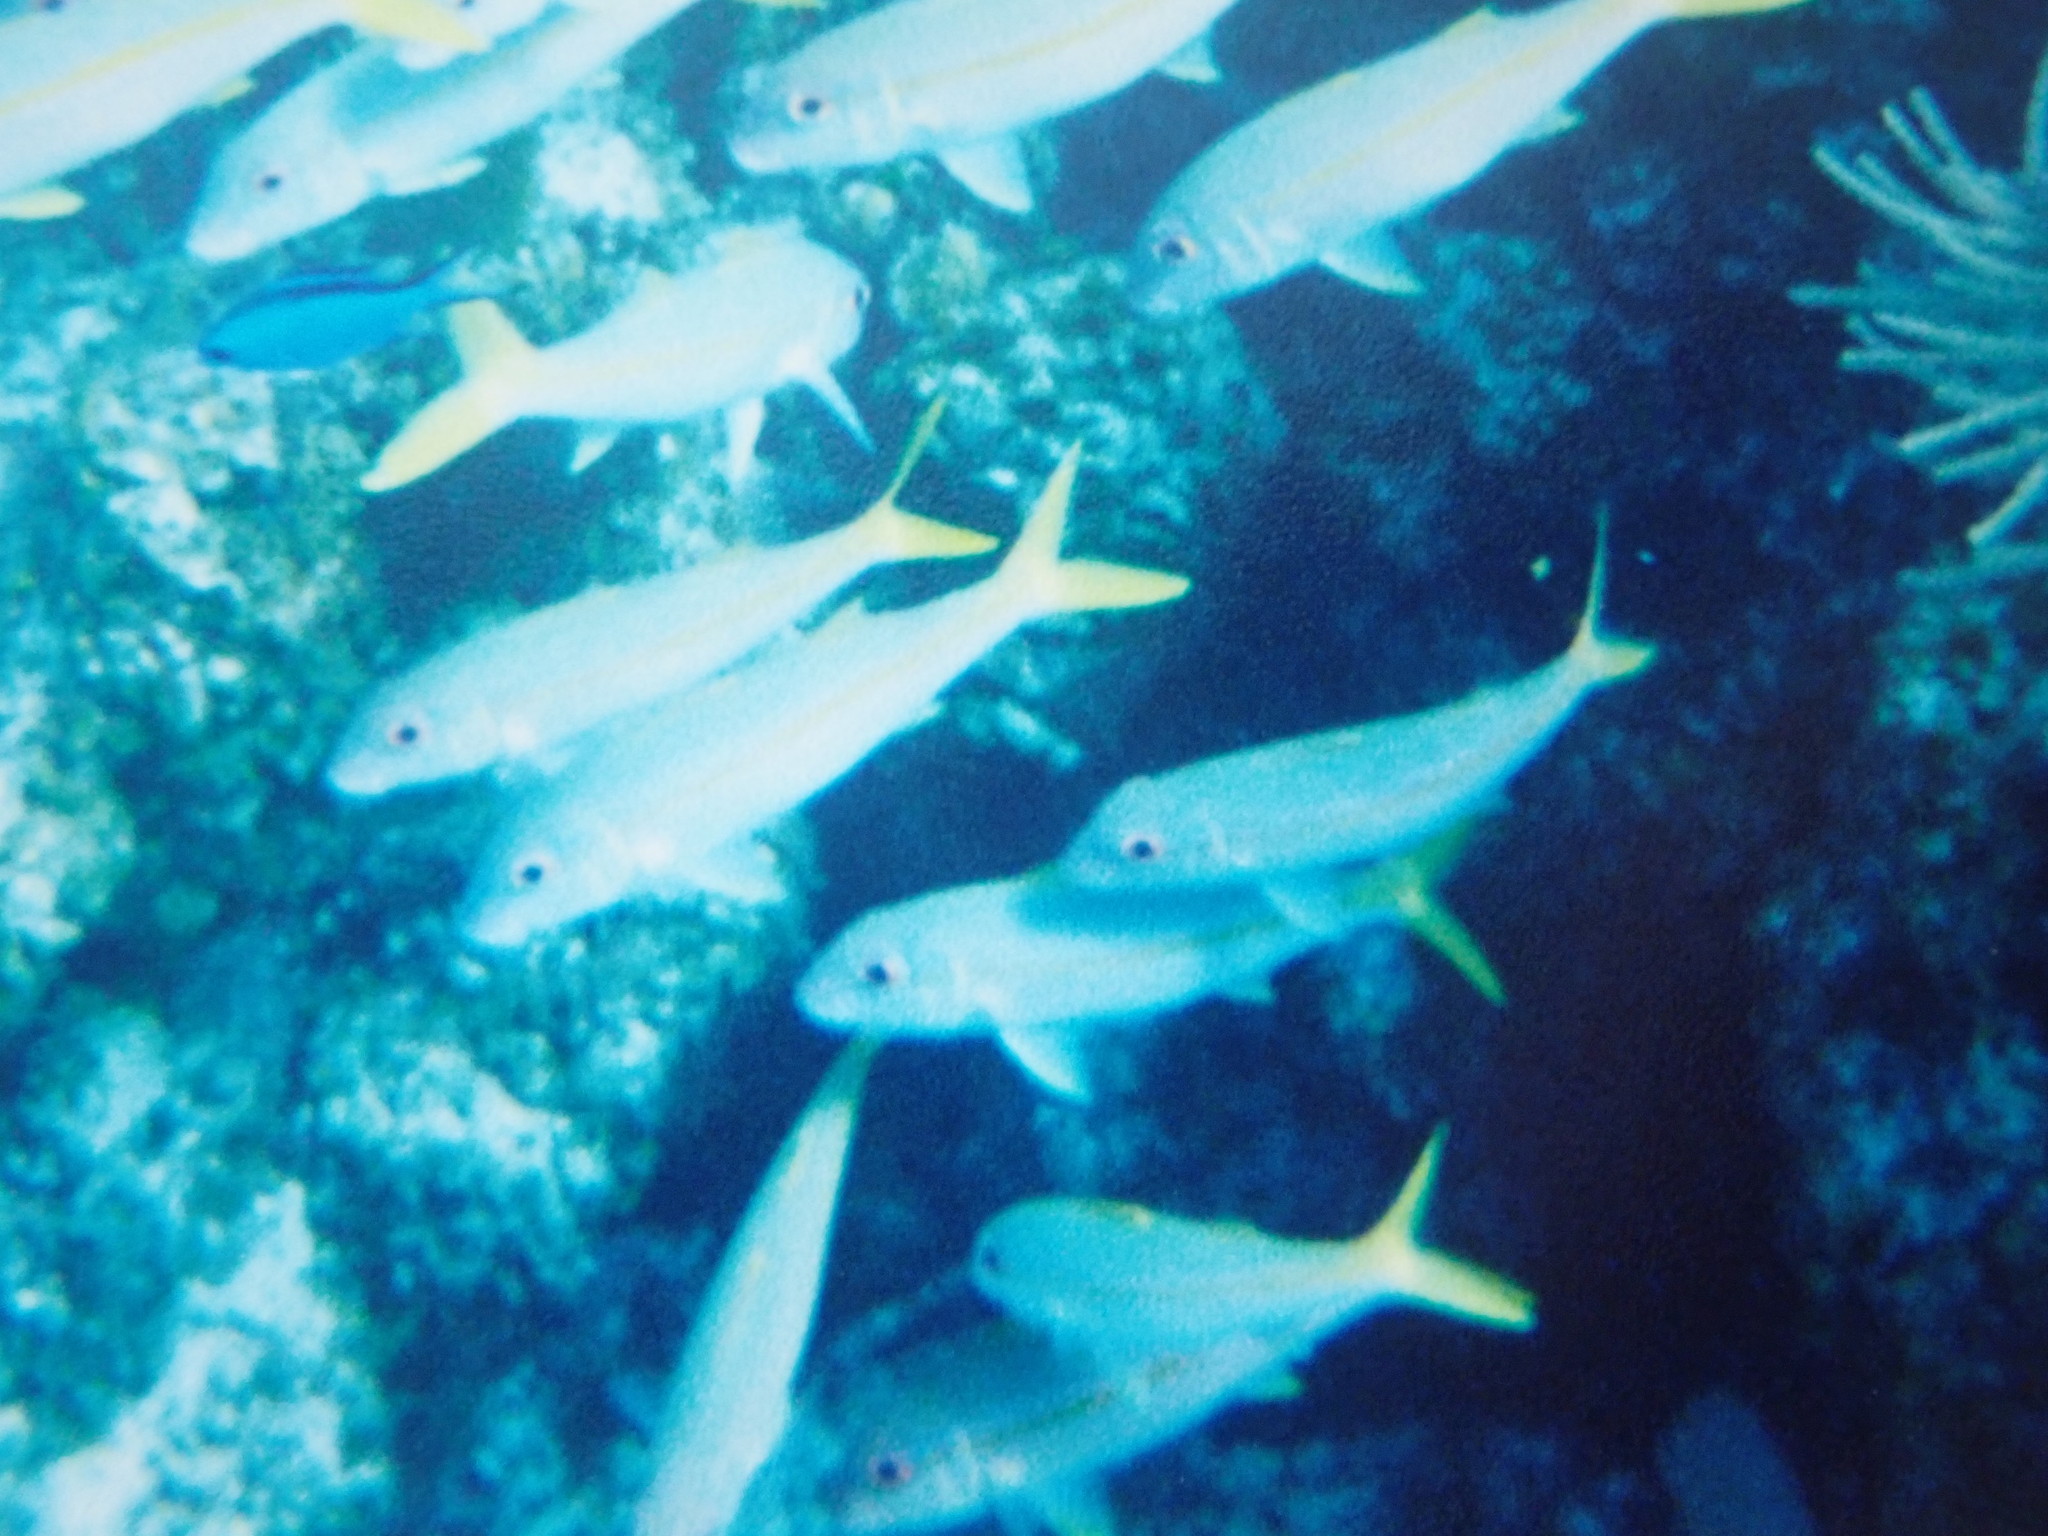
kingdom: Animalia
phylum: Chordata
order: Perciformes
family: Mullidae
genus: Mulloidichthys
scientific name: Mulloidichthys martinicus
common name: Yellow goatfish
